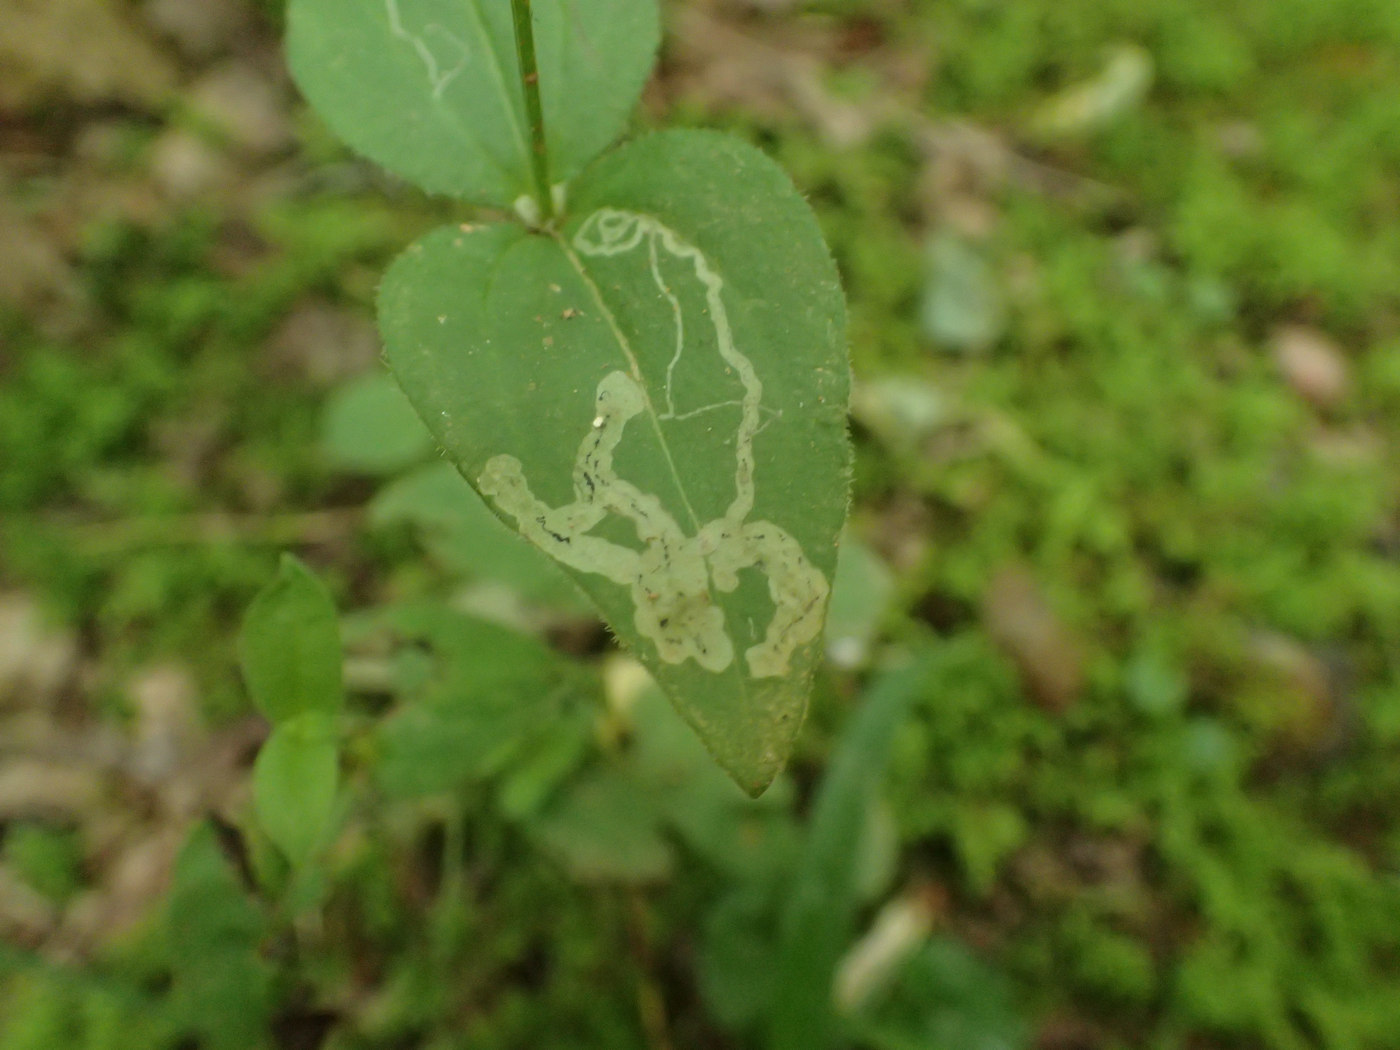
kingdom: Animalia
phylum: Arthropoda
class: Insecta
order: Diptera
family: Agromyzidae
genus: Liriomyza
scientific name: Liriomyza galiivora
